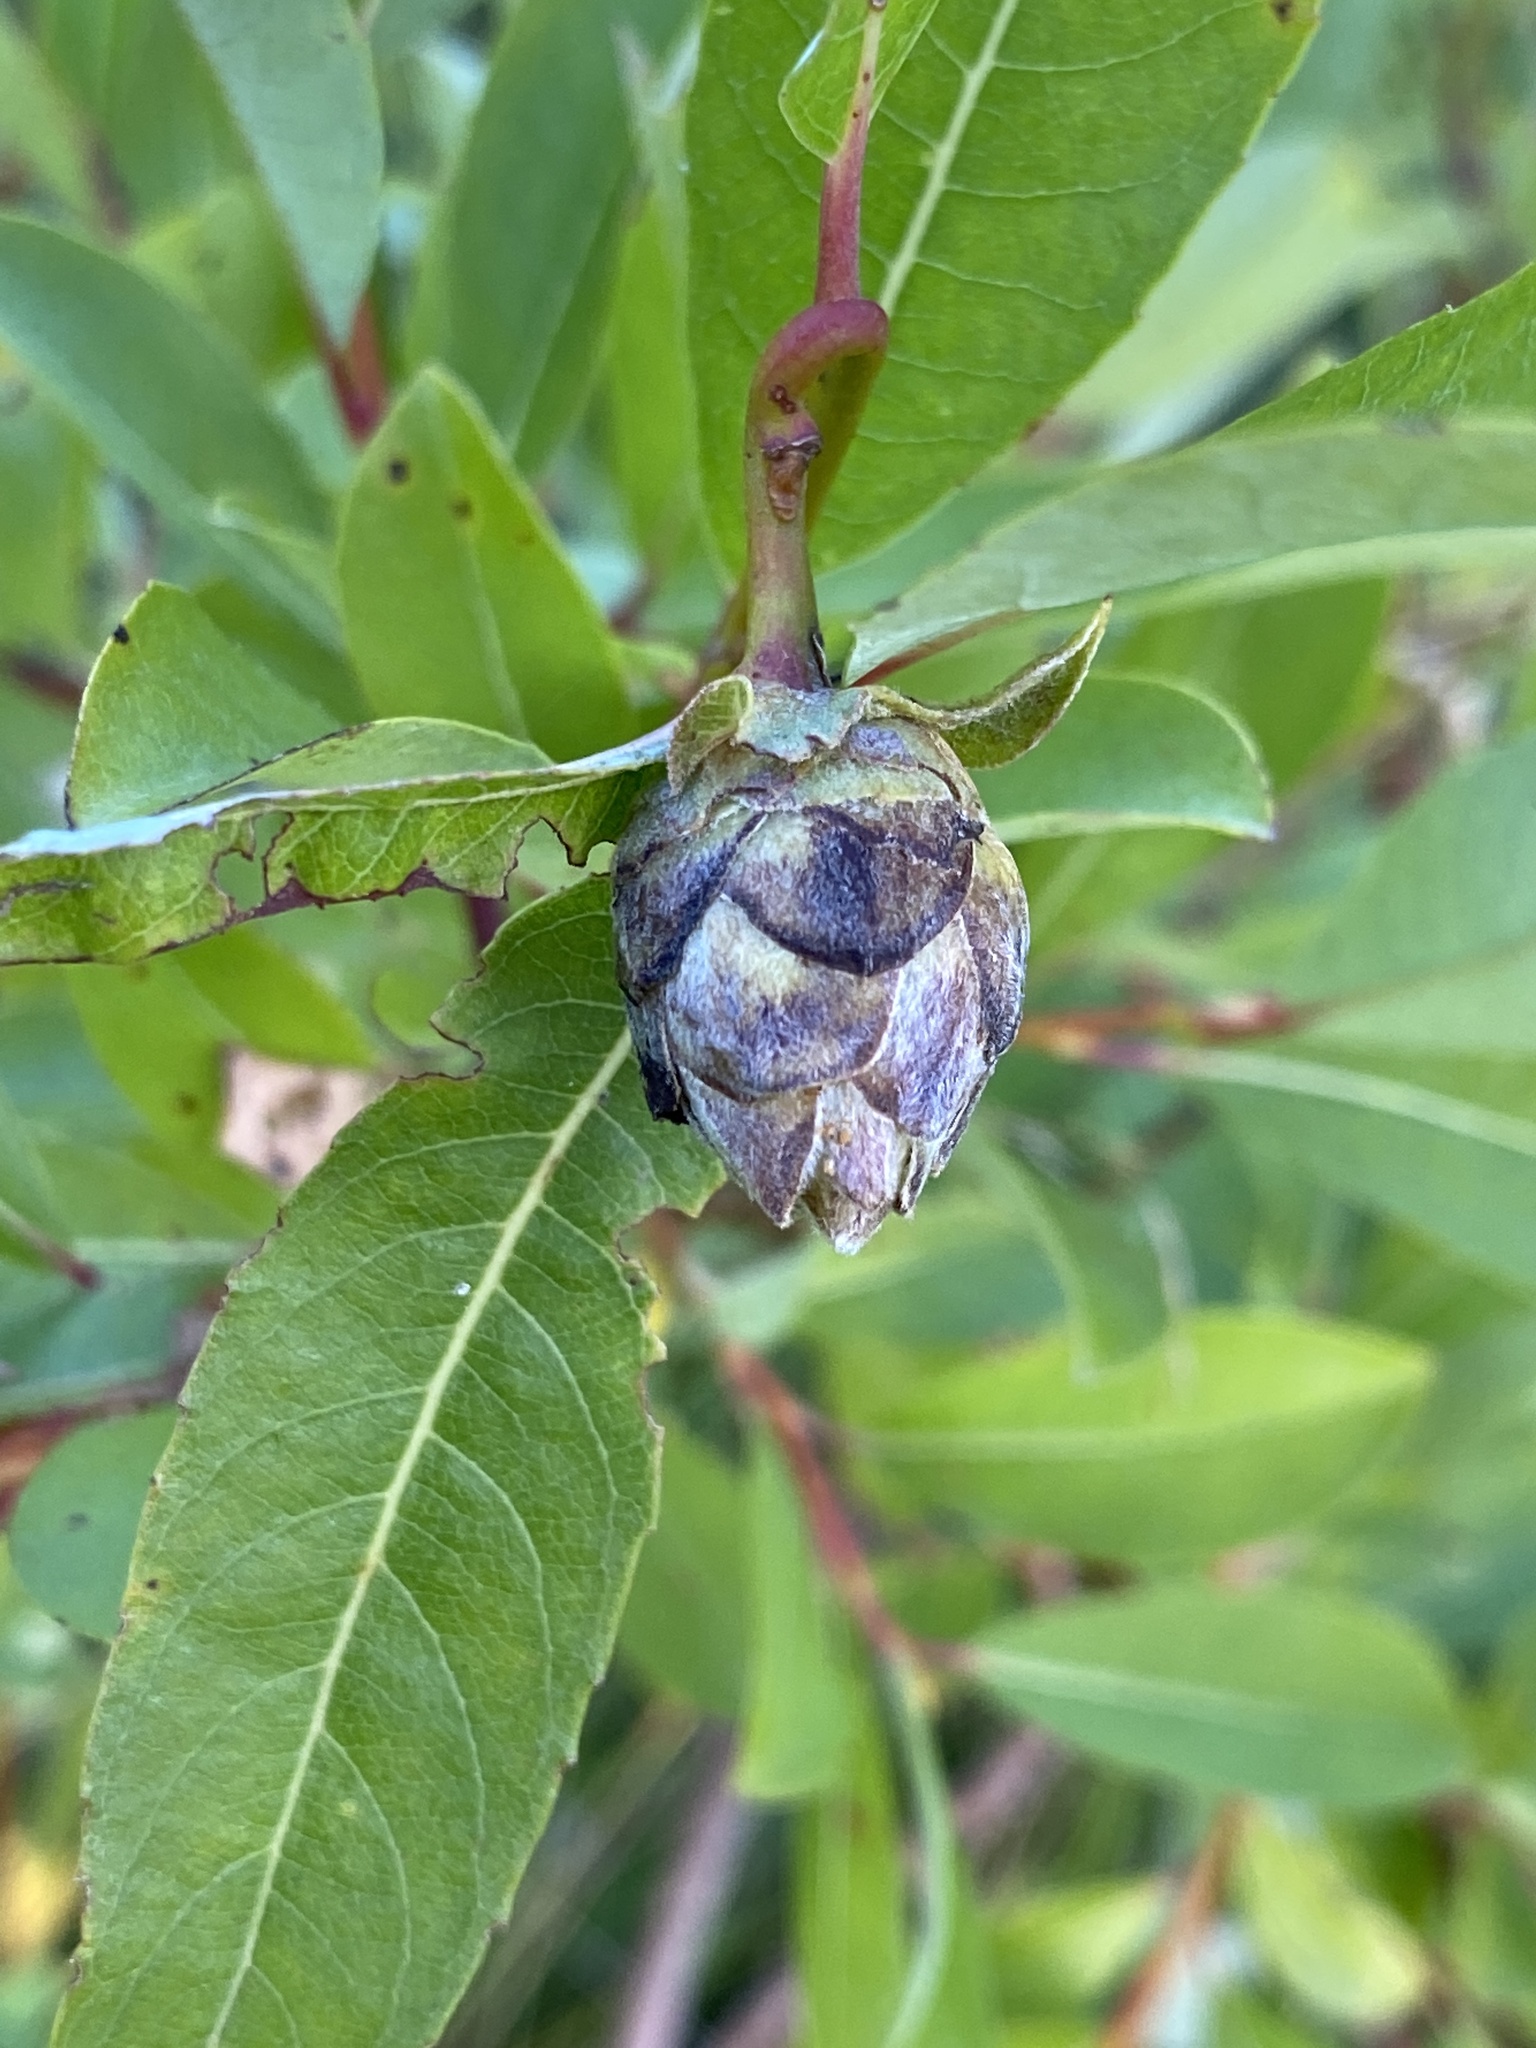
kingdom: Animalia
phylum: Arthropoda
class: Insecta
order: Diptera
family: Cecidomyiidae
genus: Rabdophaga
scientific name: Rabdophaga strobiloides
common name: Willow pinecone gall midge
